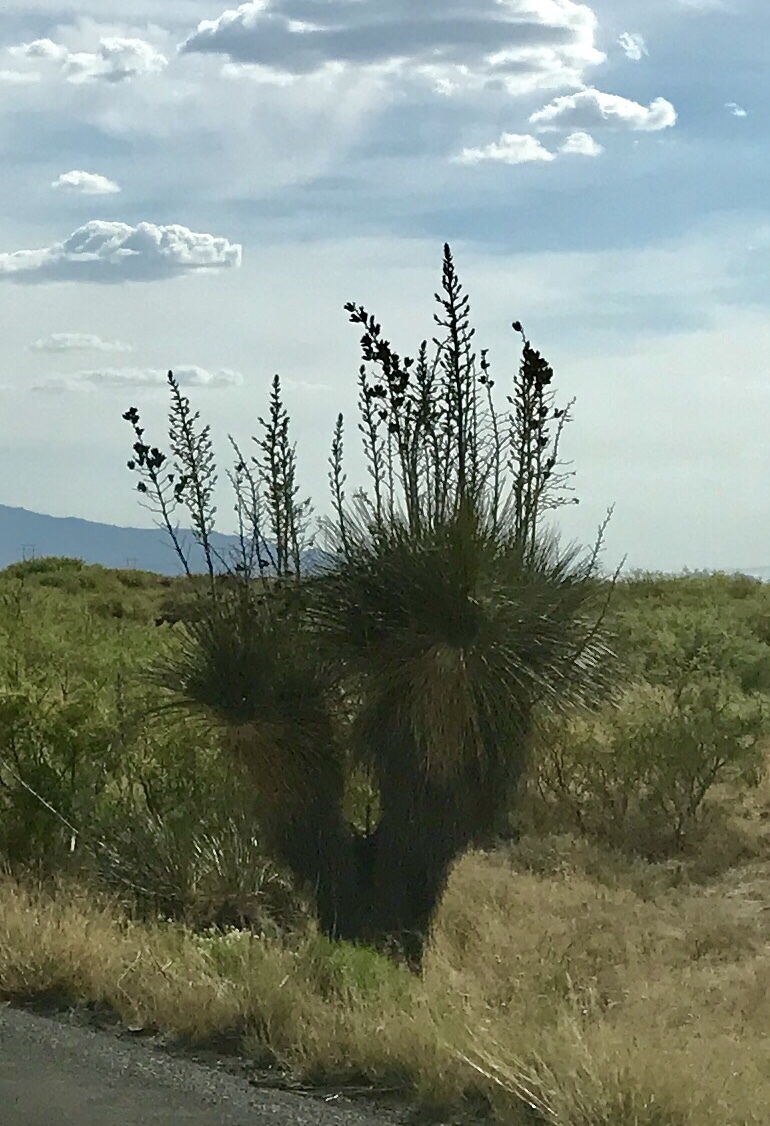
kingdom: Plantae
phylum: Tracheophyta
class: Liliopsida
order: Asparagales
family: Asparagaceae
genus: Yucca
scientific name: Yucca elata
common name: Palmella
